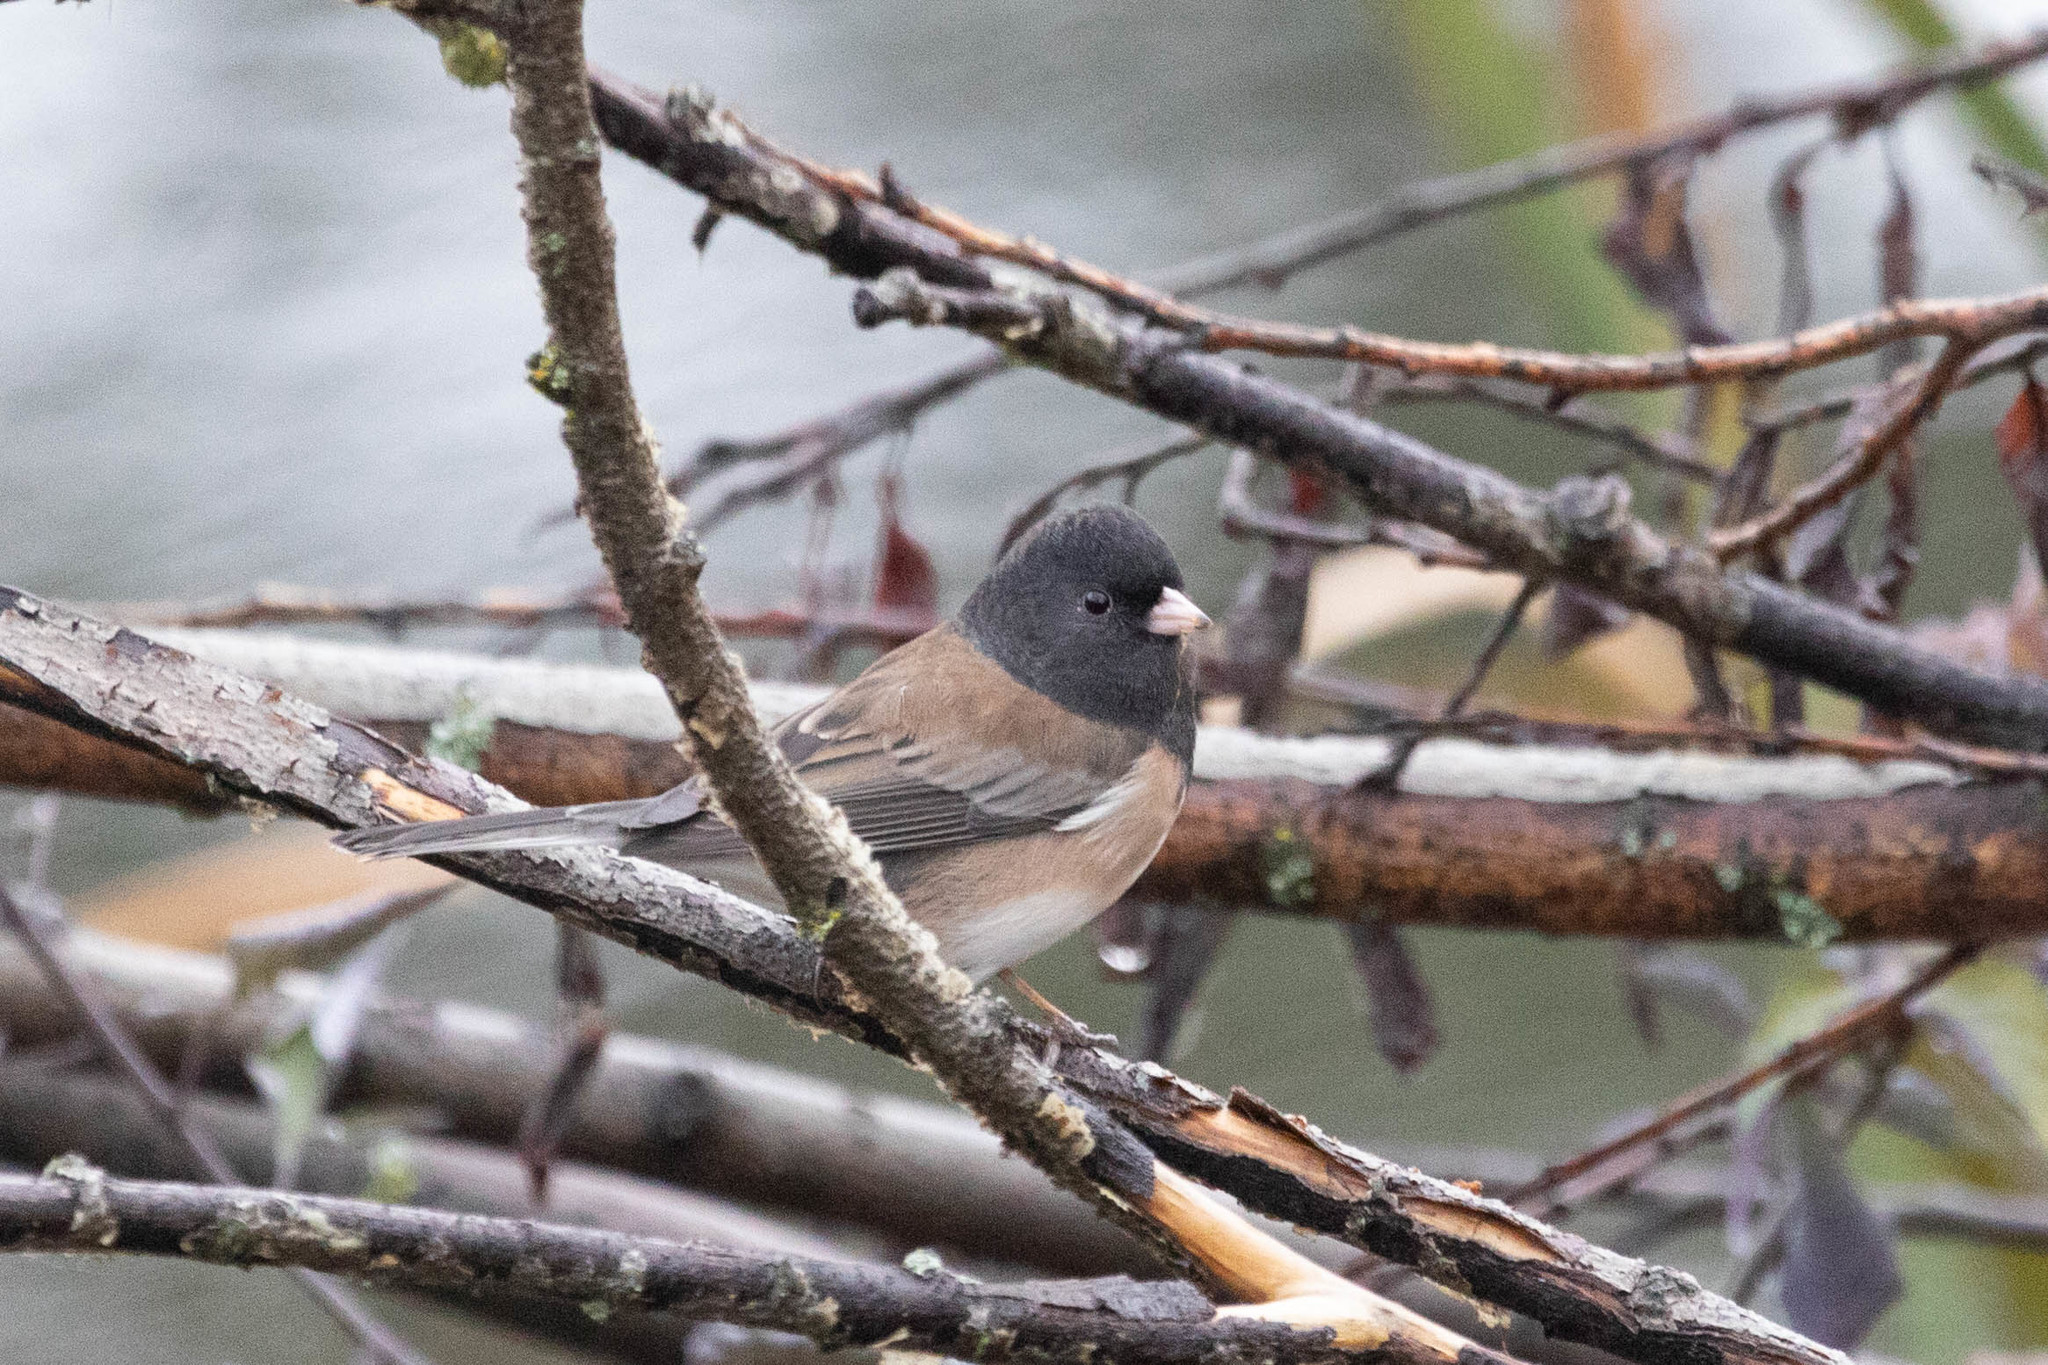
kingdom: Animalia
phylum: Chordata
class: Aves
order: Passeriformes
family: Passerellidae
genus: Junco
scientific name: Junco hyemalis
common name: Dark-eyed junco
